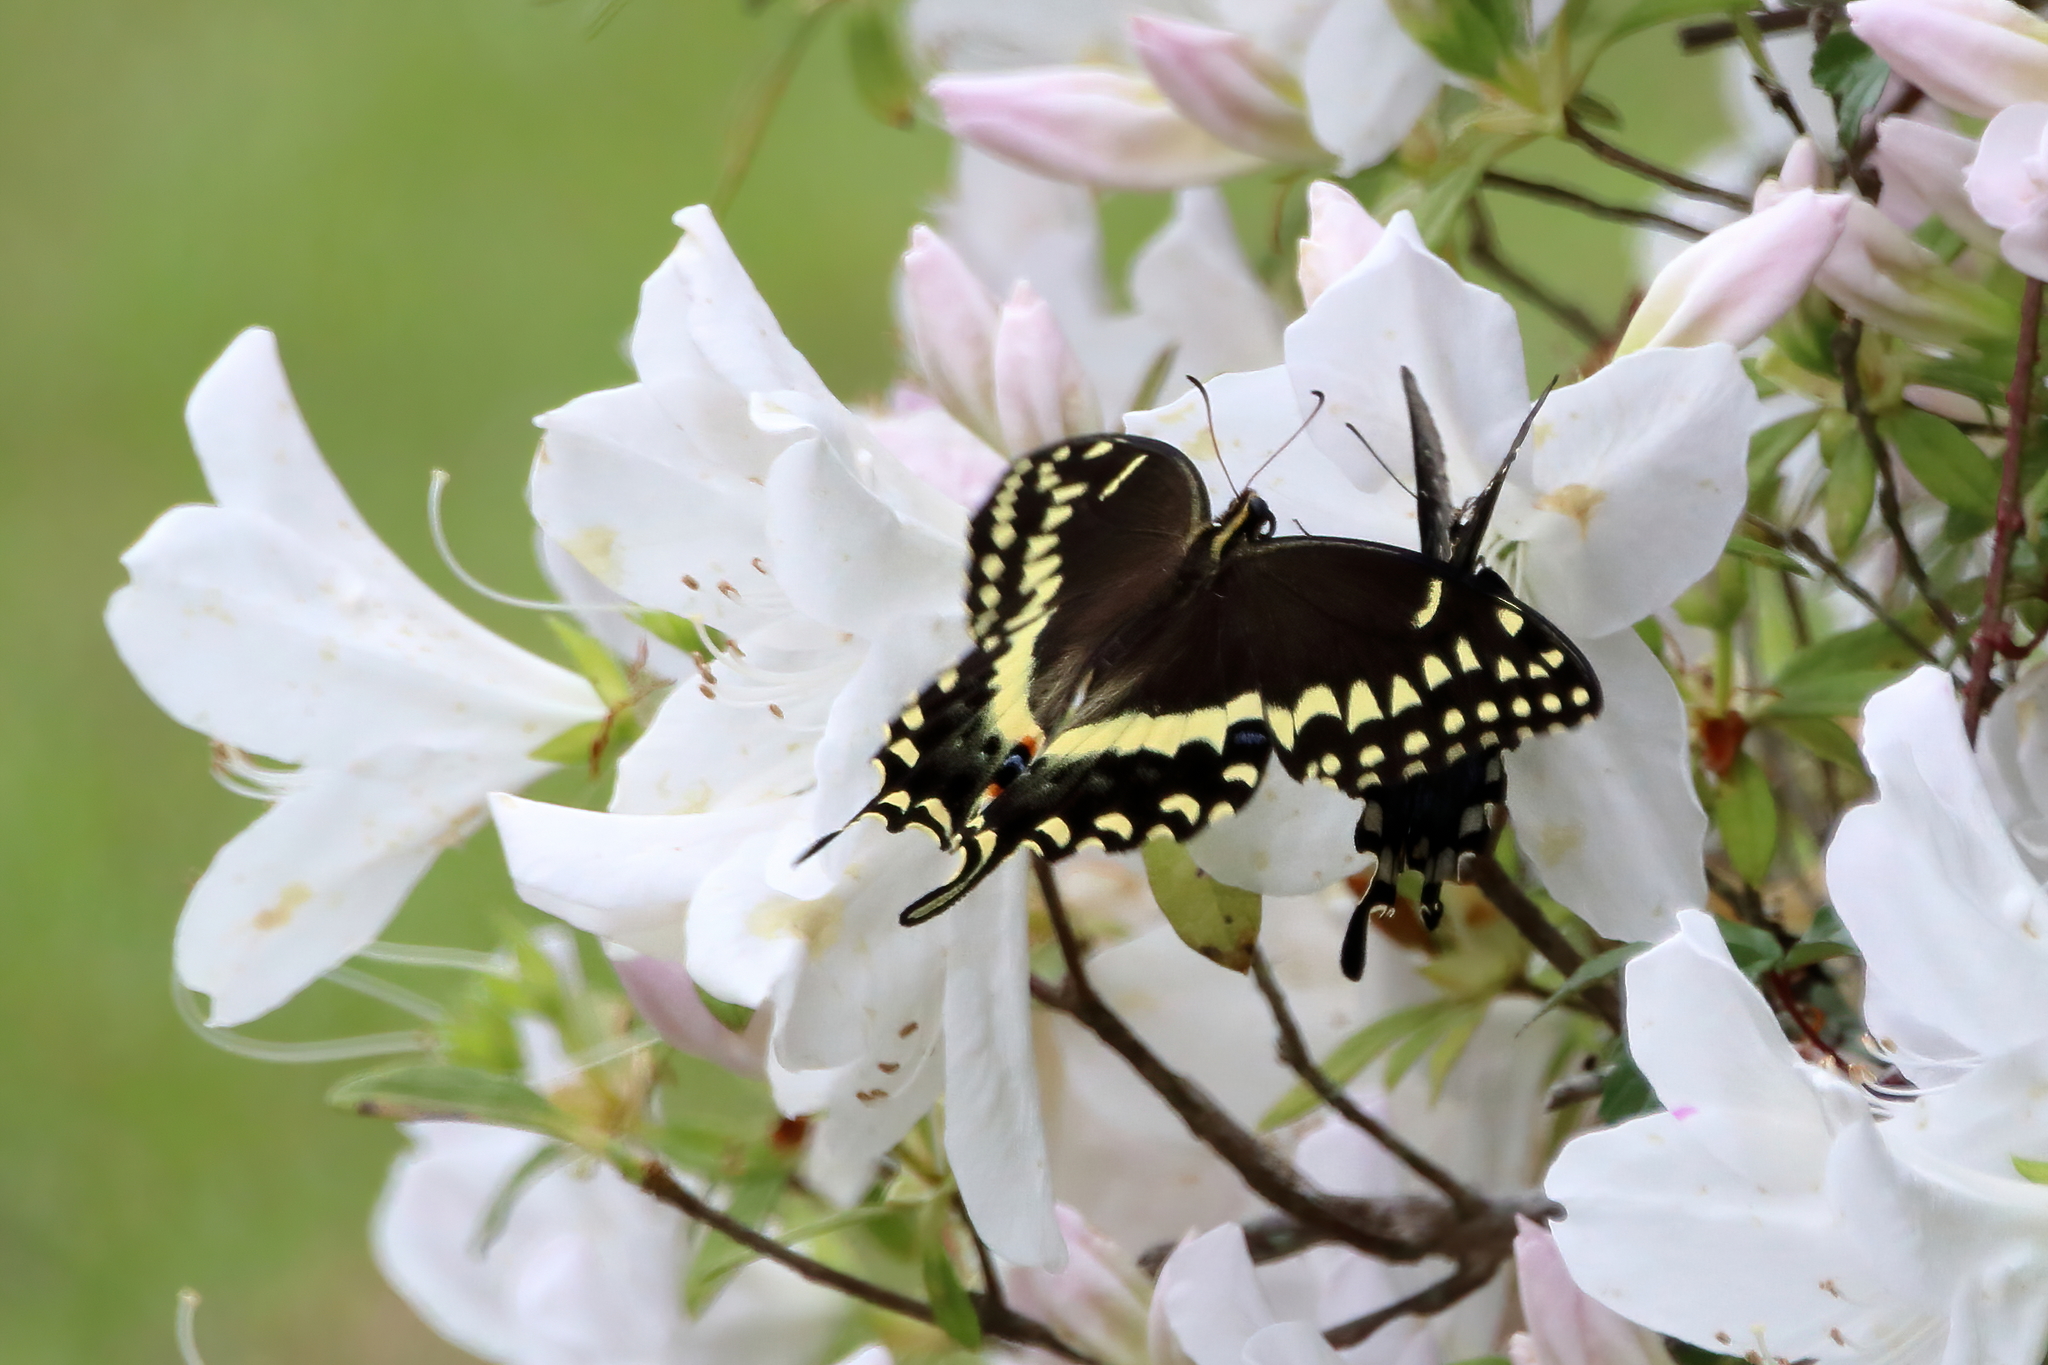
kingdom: Animalia
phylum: Arthropoda
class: Insecta
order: Lepidoptera
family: Papilionidae
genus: Papilio
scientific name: Papilio palamedes
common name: Palamedes swallowtail
